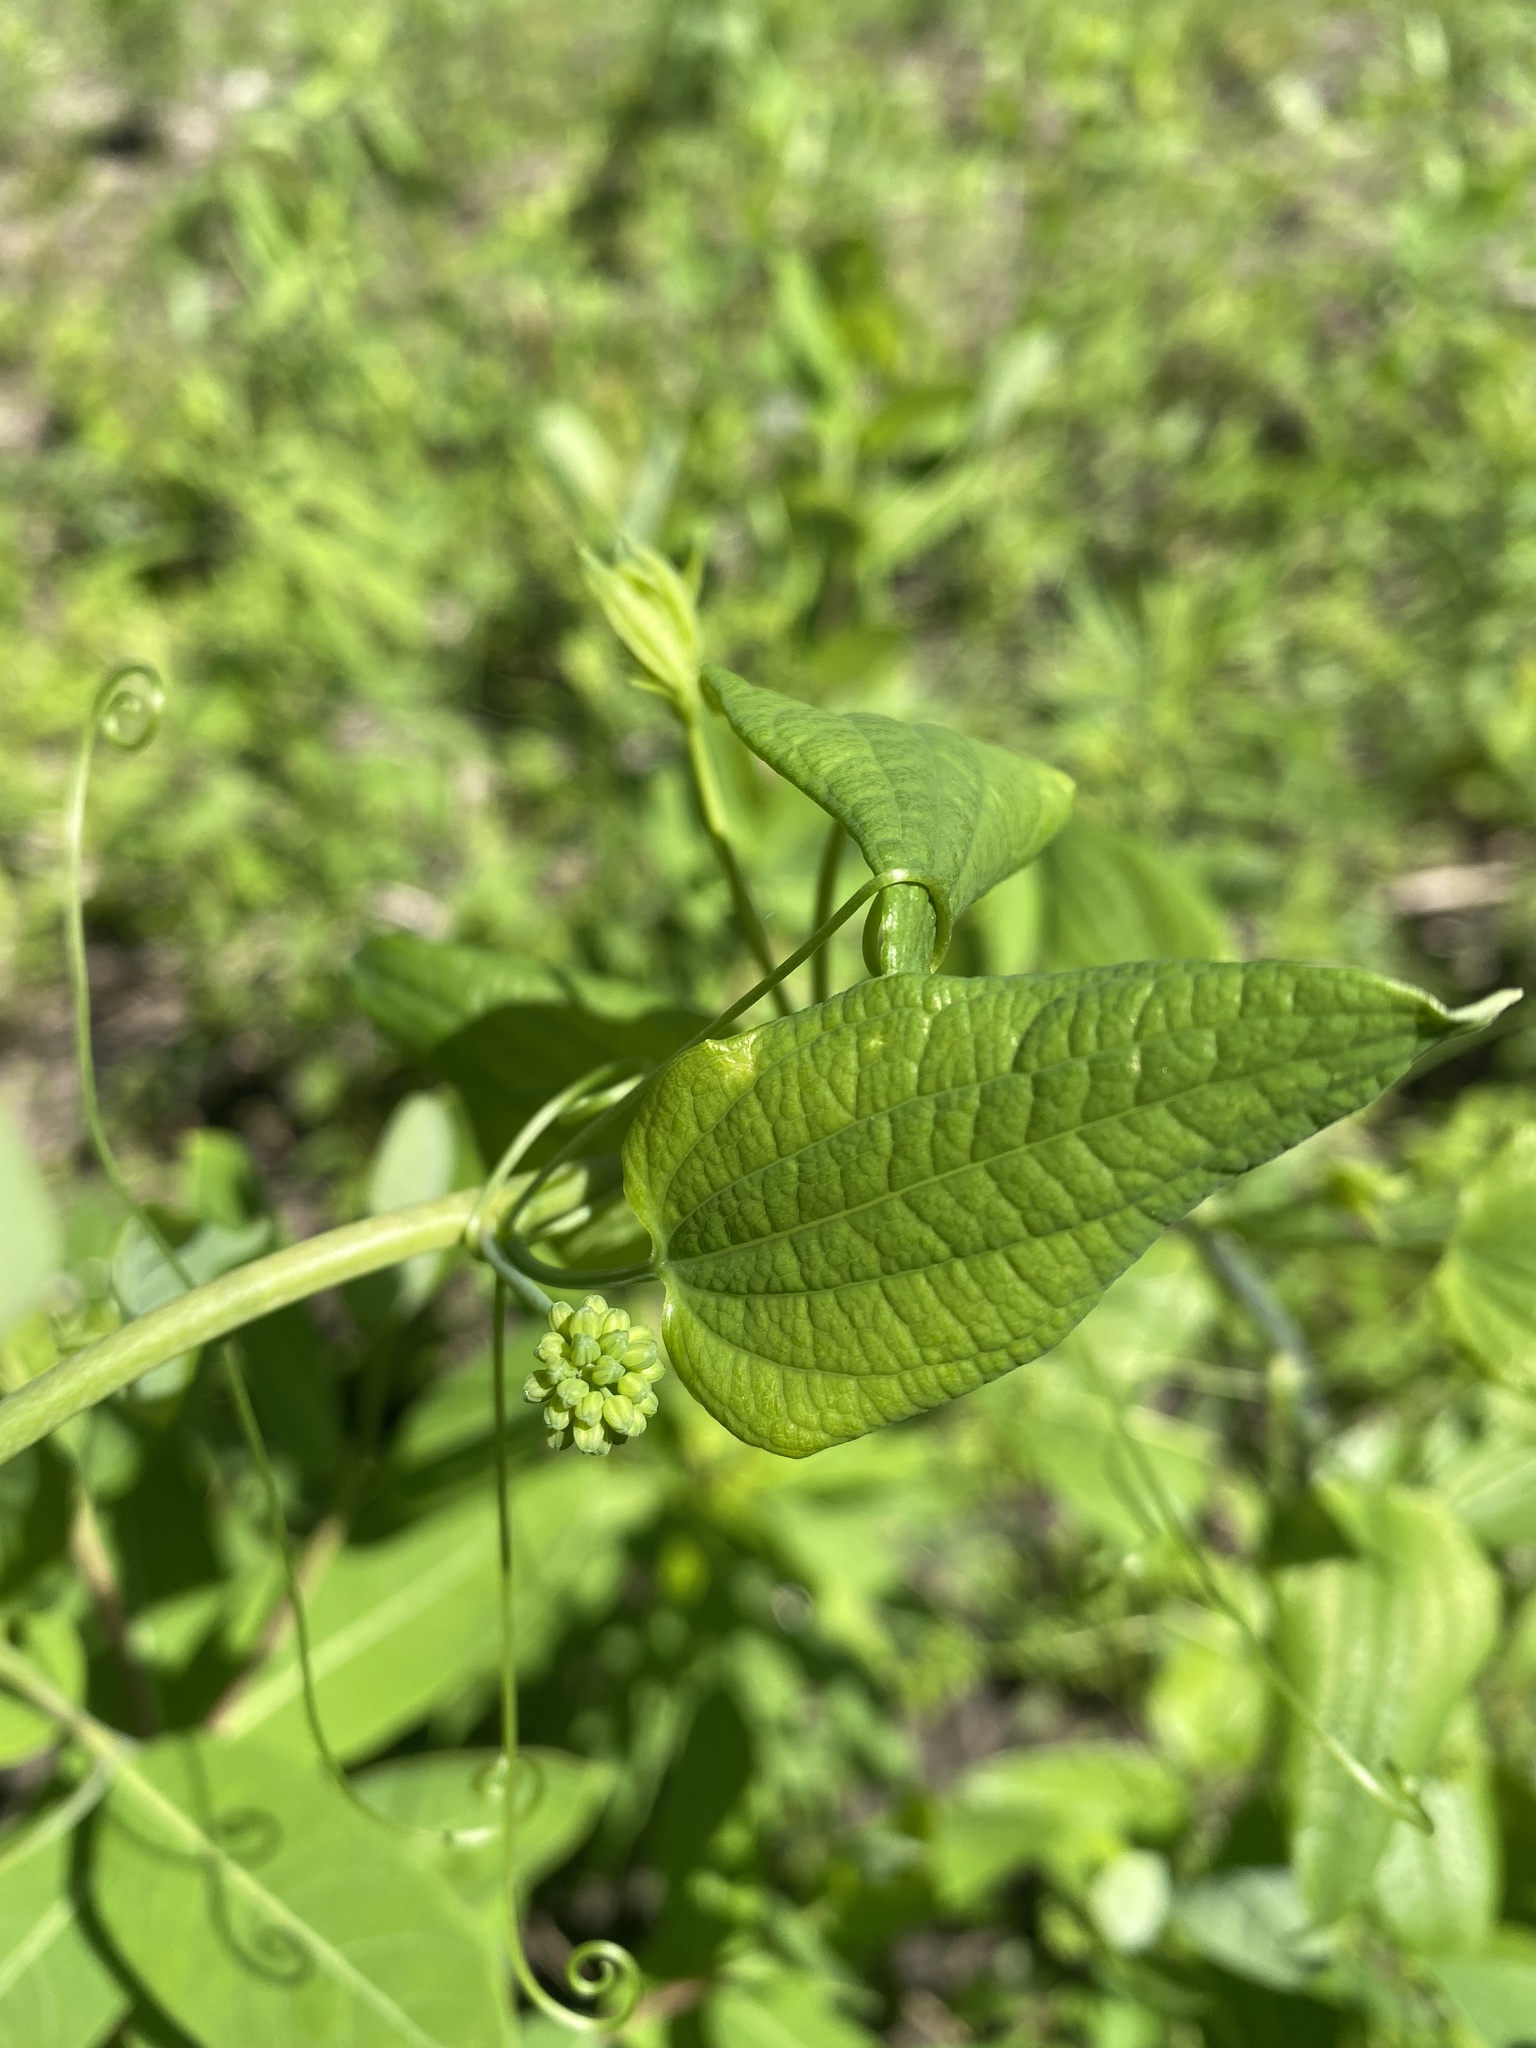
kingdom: Plantae
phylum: Tracheophyta
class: Liliopsida
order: Liliales
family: Smilacaceae
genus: Smilax
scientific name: Smilax lasioneura
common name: Blue ridge carrionflower
